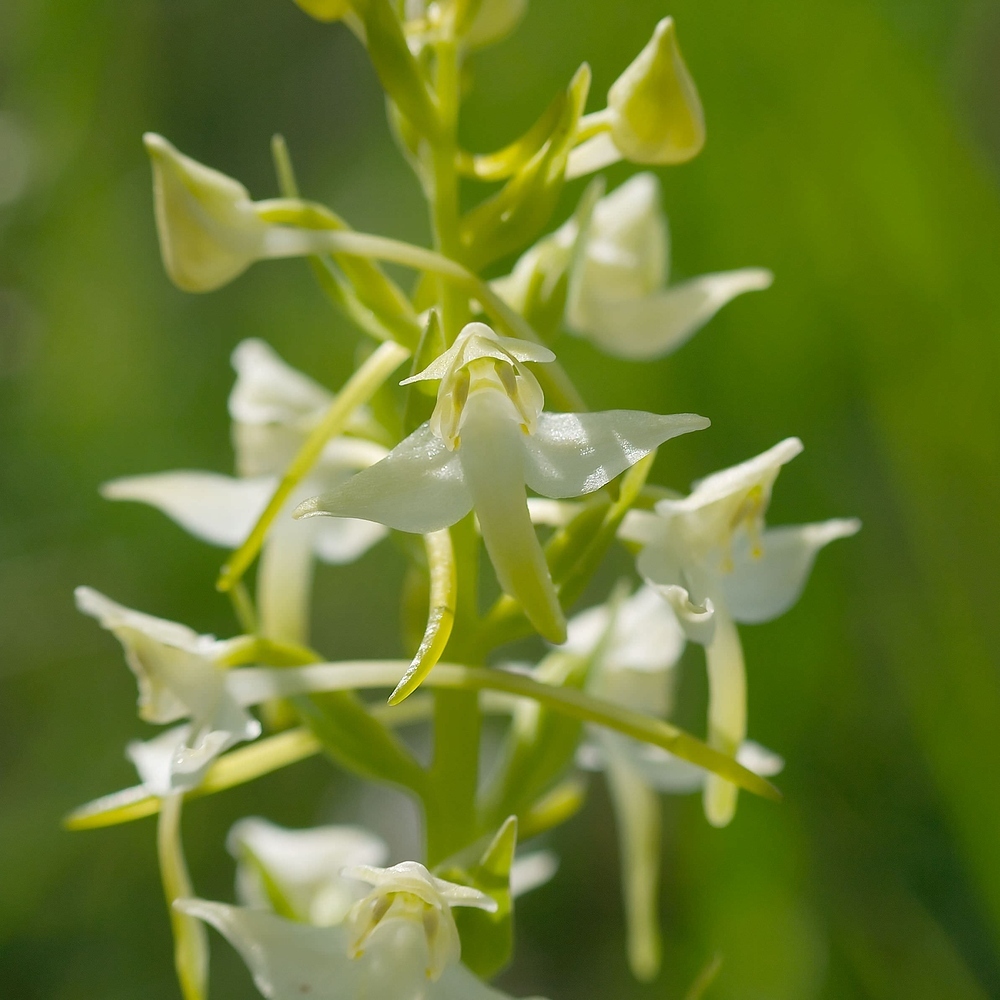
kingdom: Plantae
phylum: Tracheophyta
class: Liliopsida
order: Asparagales
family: Orchidaceae
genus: Platanthera
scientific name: Platanthera chlorantha
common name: Greater butterfly-orchid
